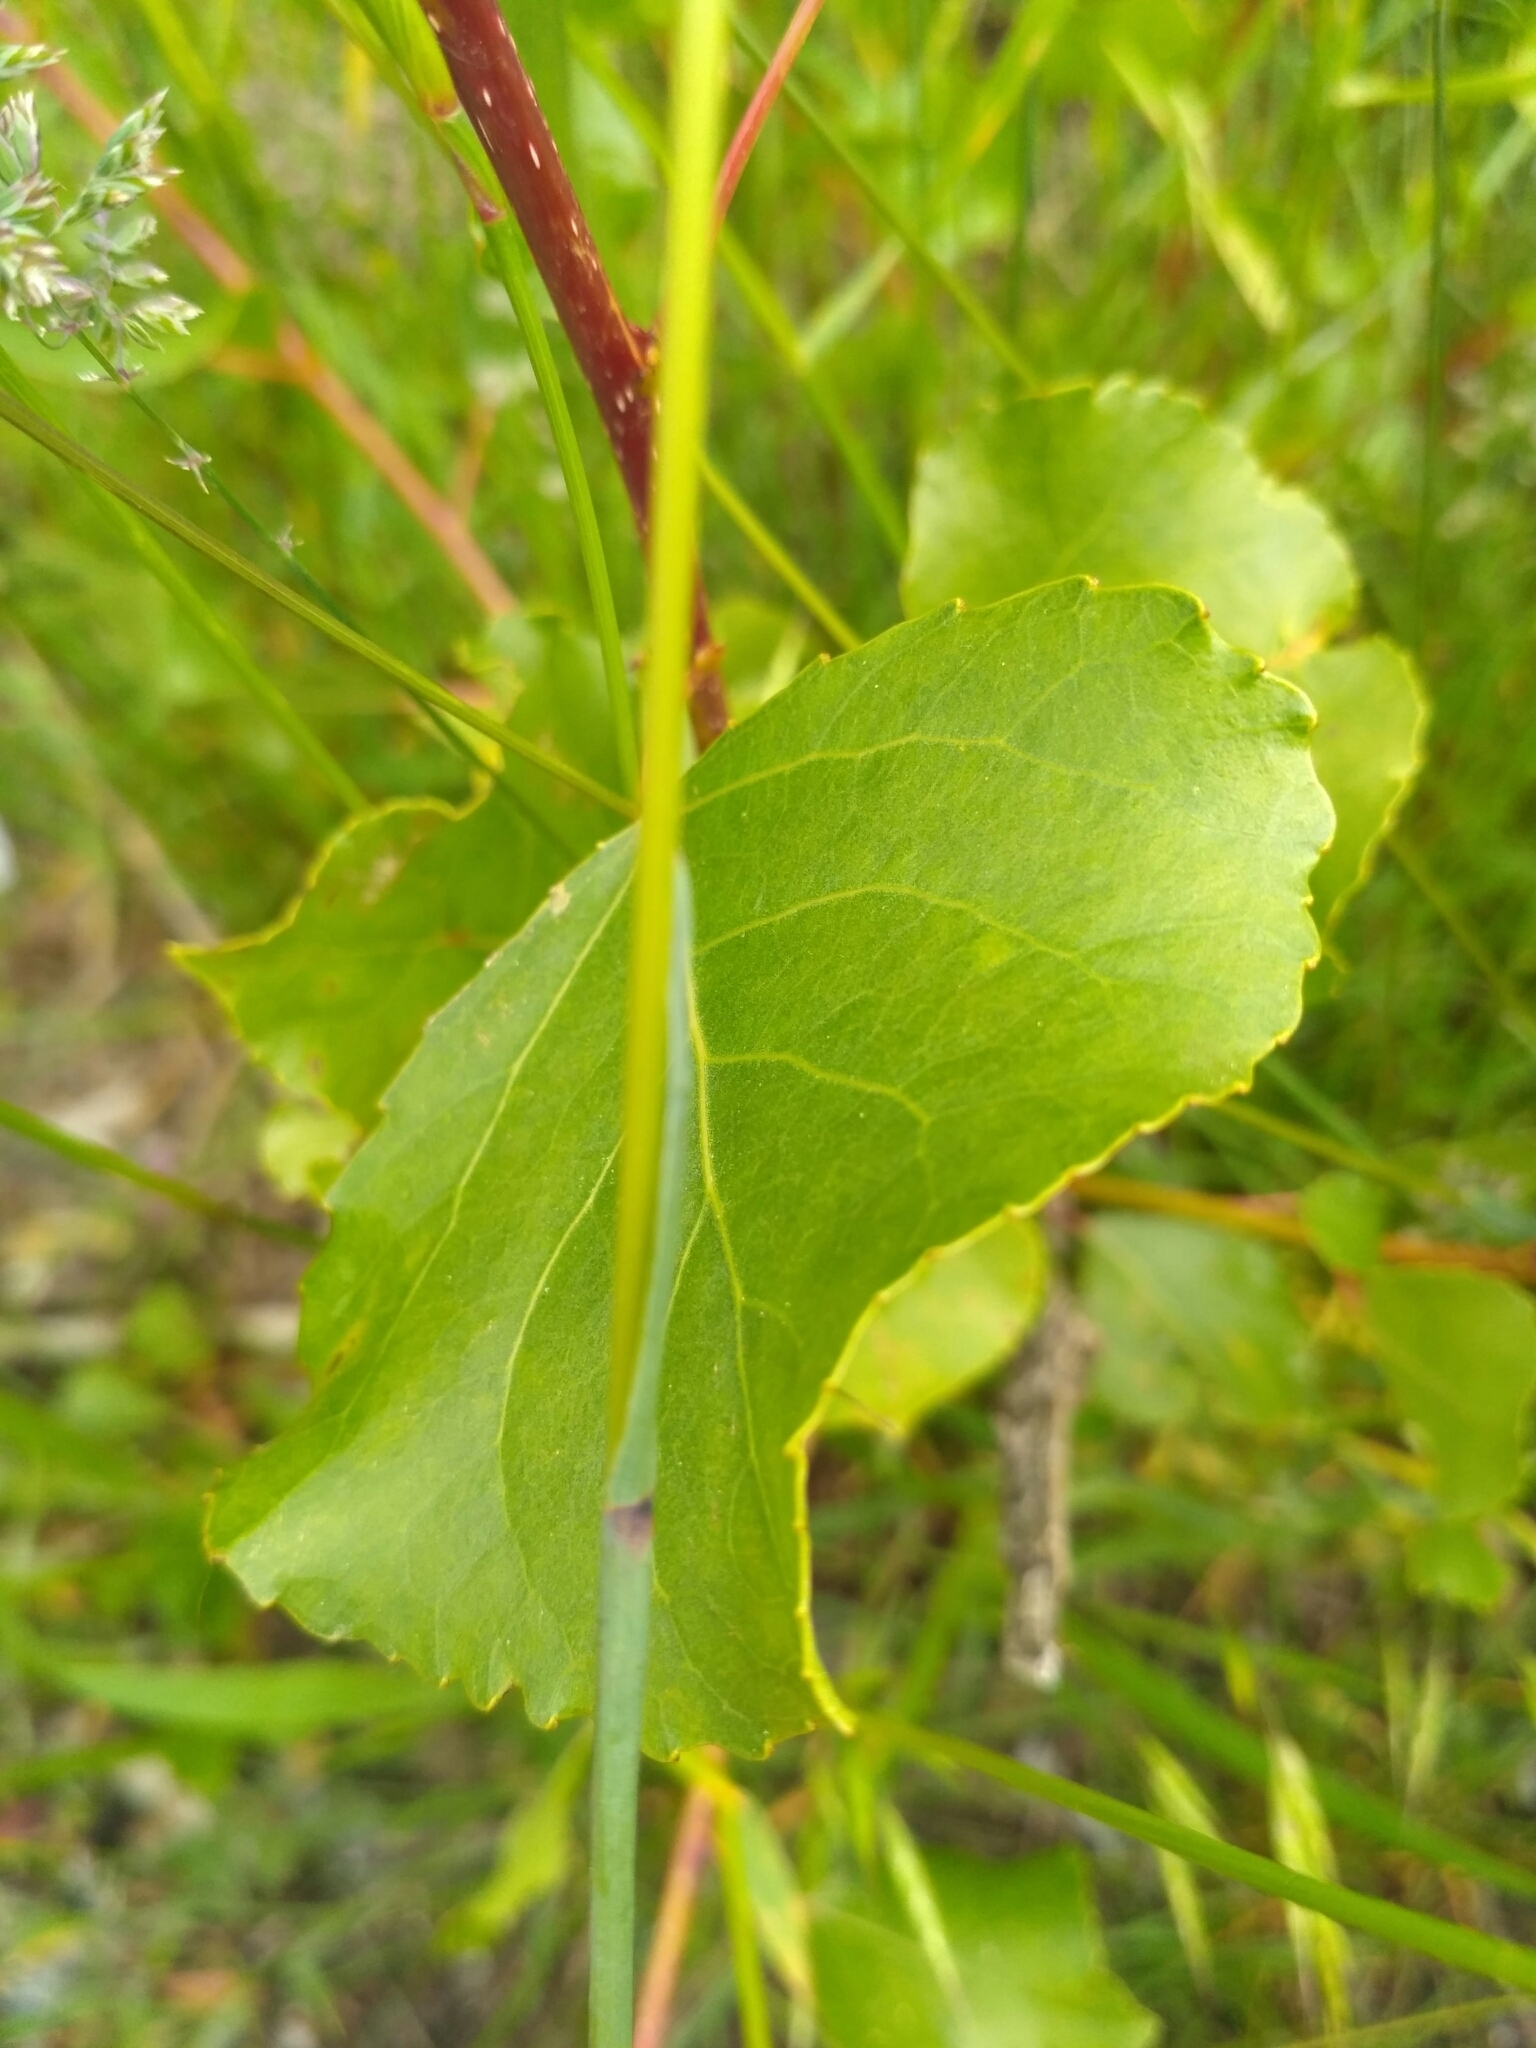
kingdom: Plantae
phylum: Tracheophyta
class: Liliopsida
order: Poales
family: Poaceae
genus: Poa
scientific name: Poa pratensis
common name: Kentucky bluegrass
